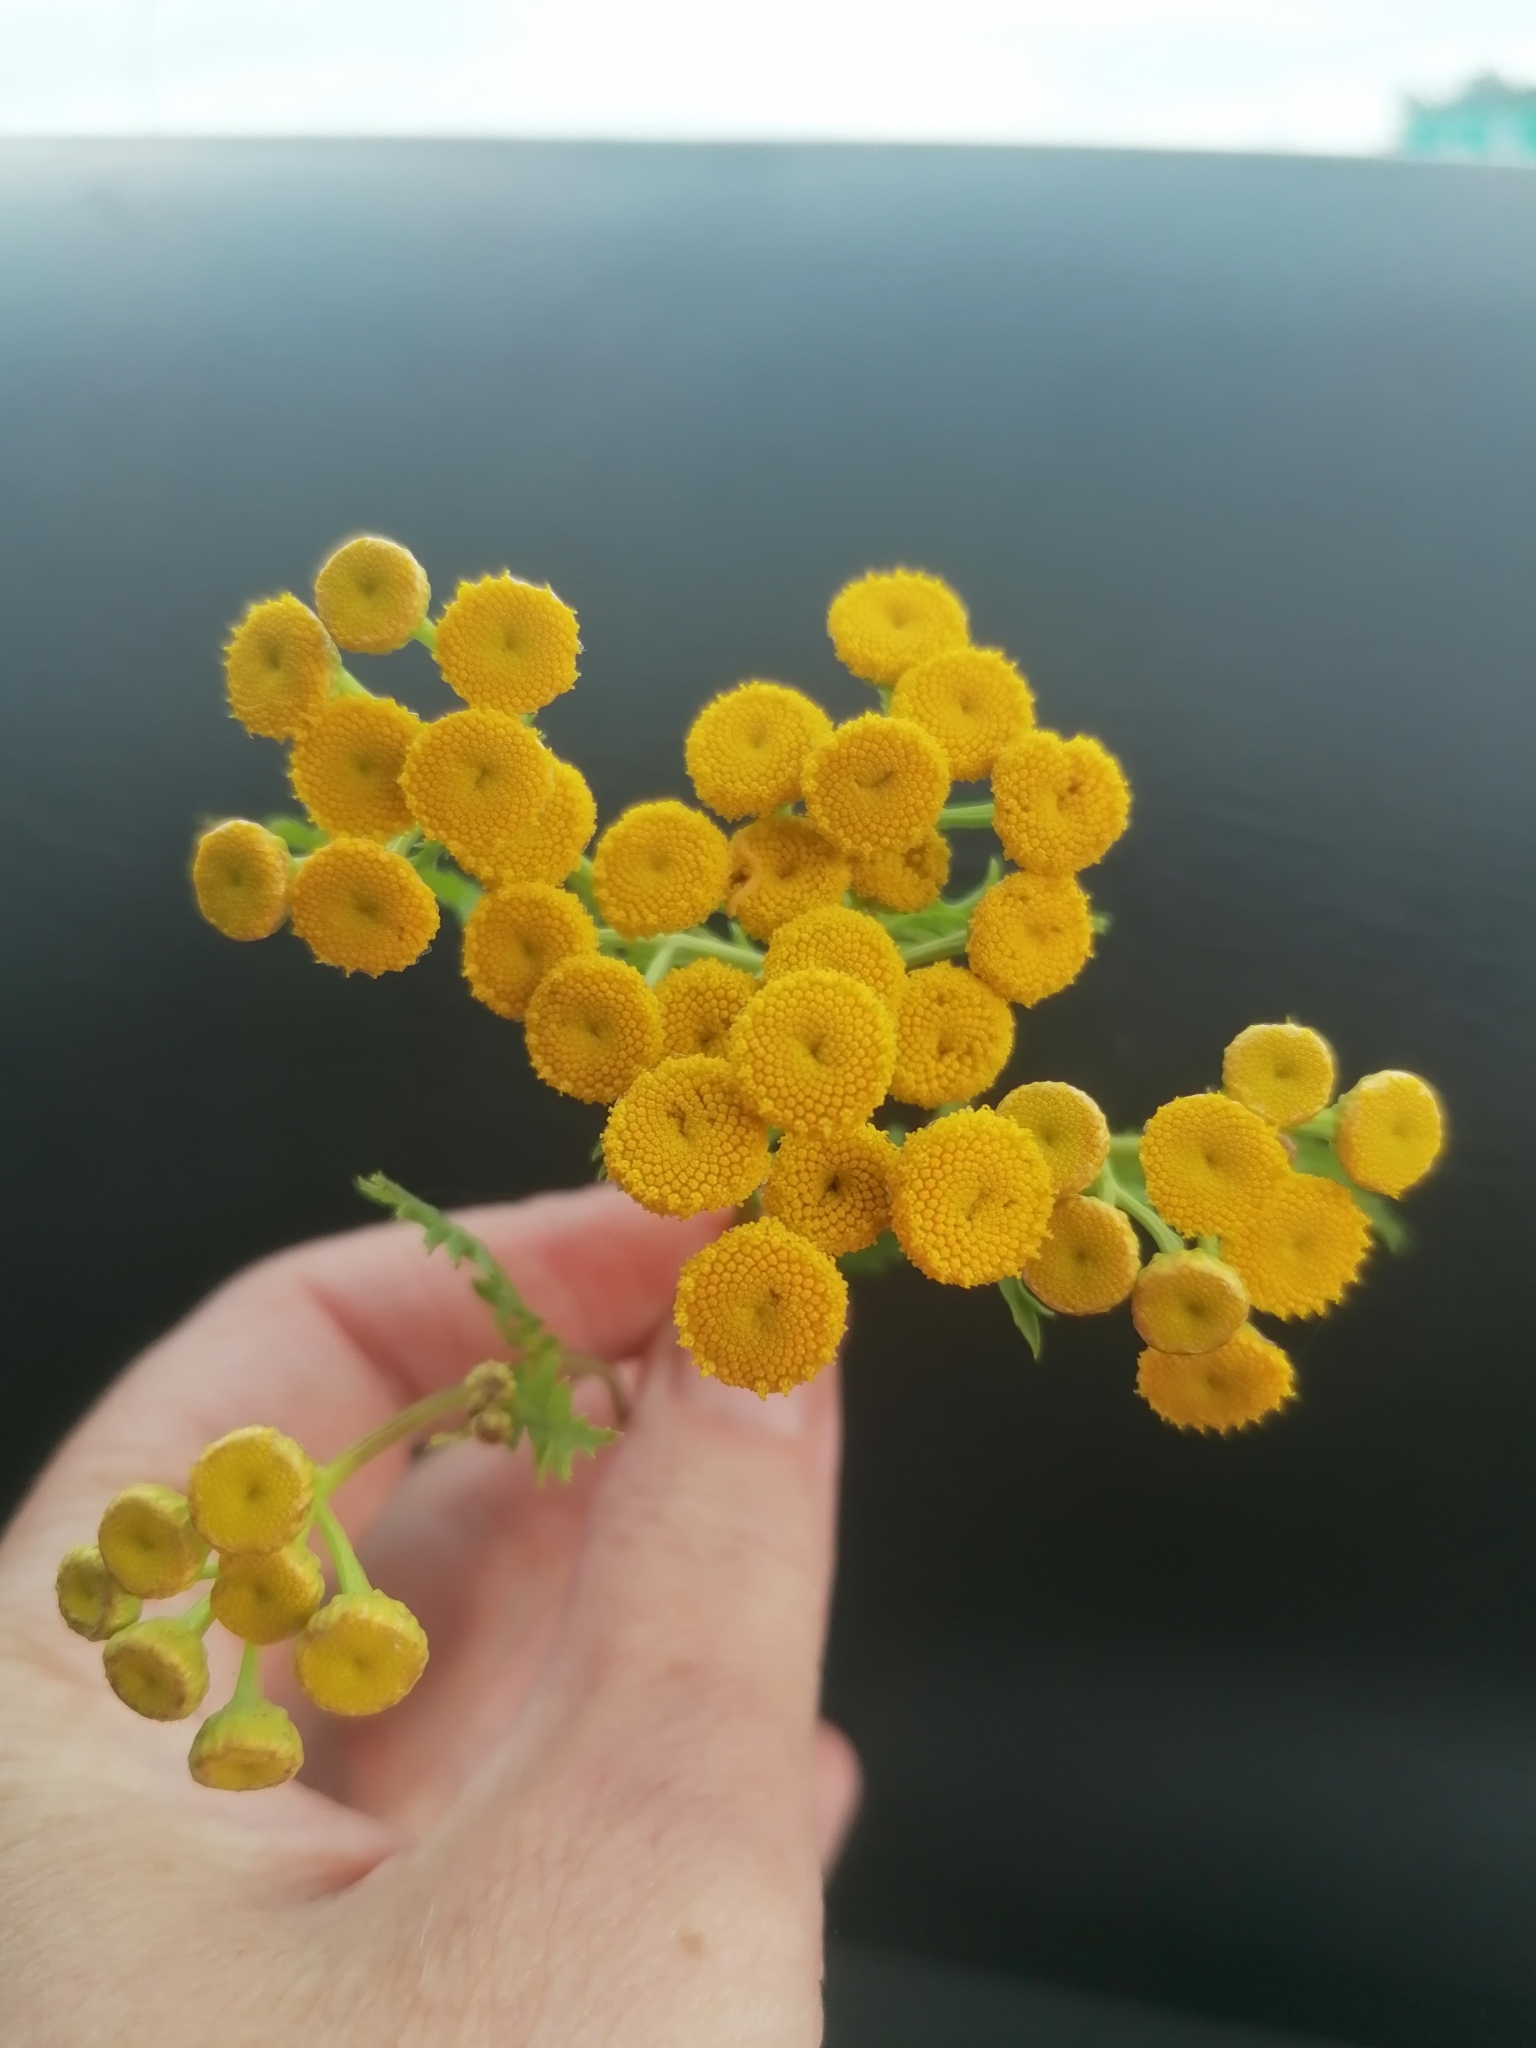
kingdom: Plantae
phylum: Tracheophyta
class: Magnoliopsida
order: Asterales
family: Asteraceae
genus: Tanacetum
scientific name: Tanacetum vulgare
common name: Common tansy
